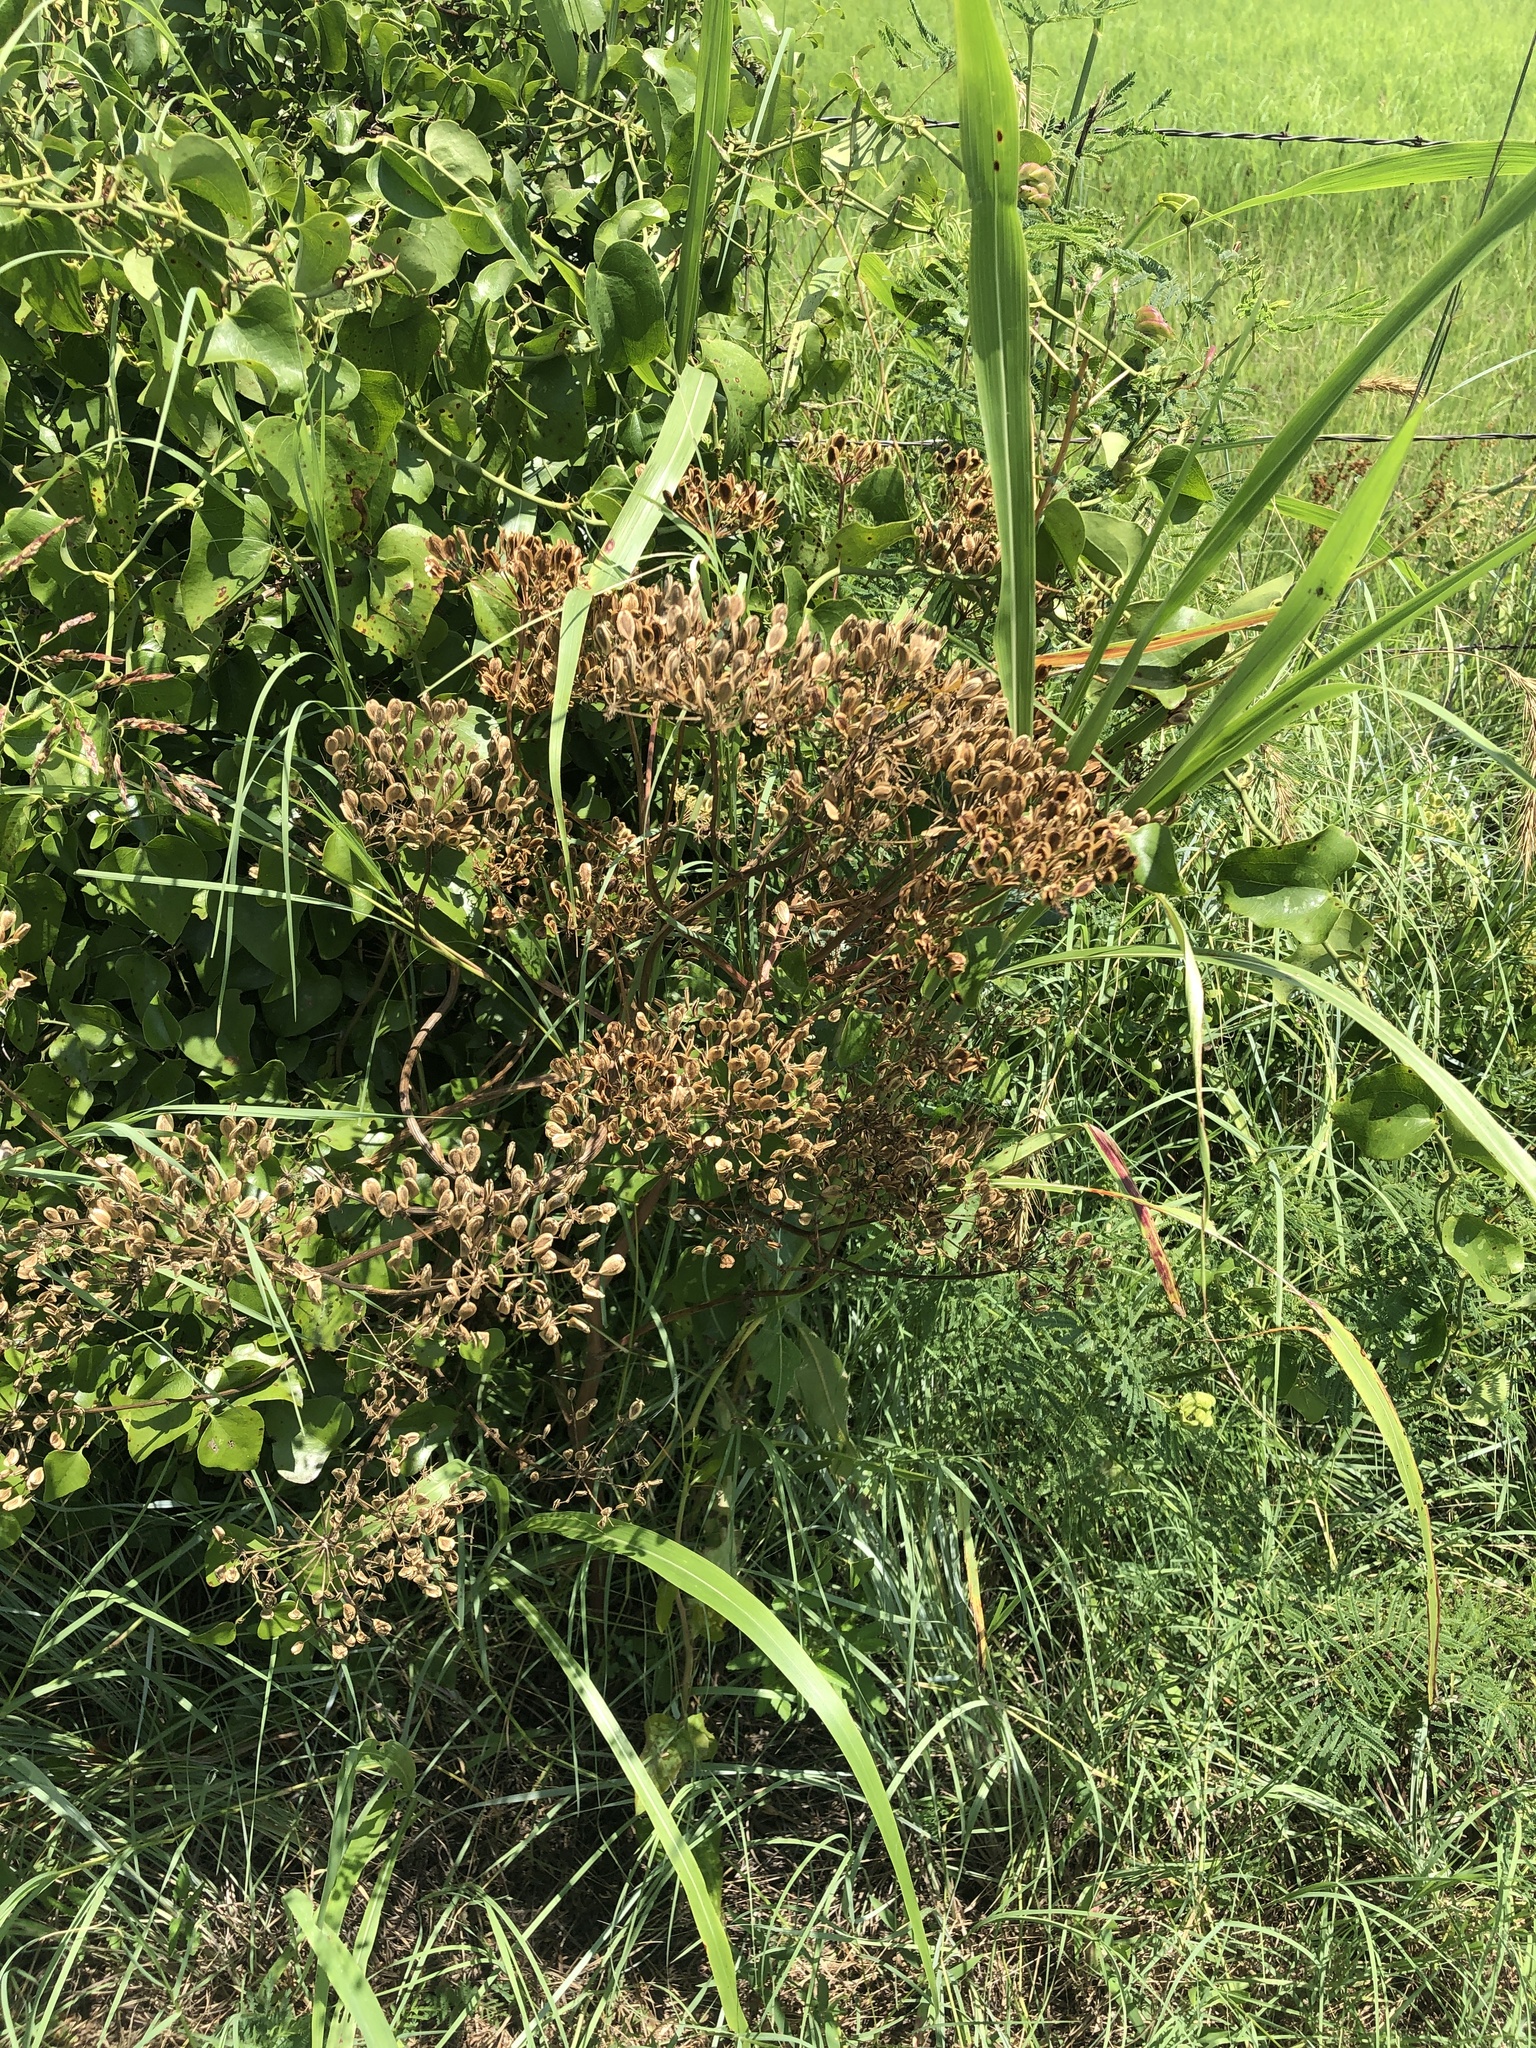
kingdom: Plantae
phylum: Tracheophyta
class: Magnoliopsida
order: Apiales
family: Apiaceae
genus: Polytaenia
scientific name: Polytaenia texana
